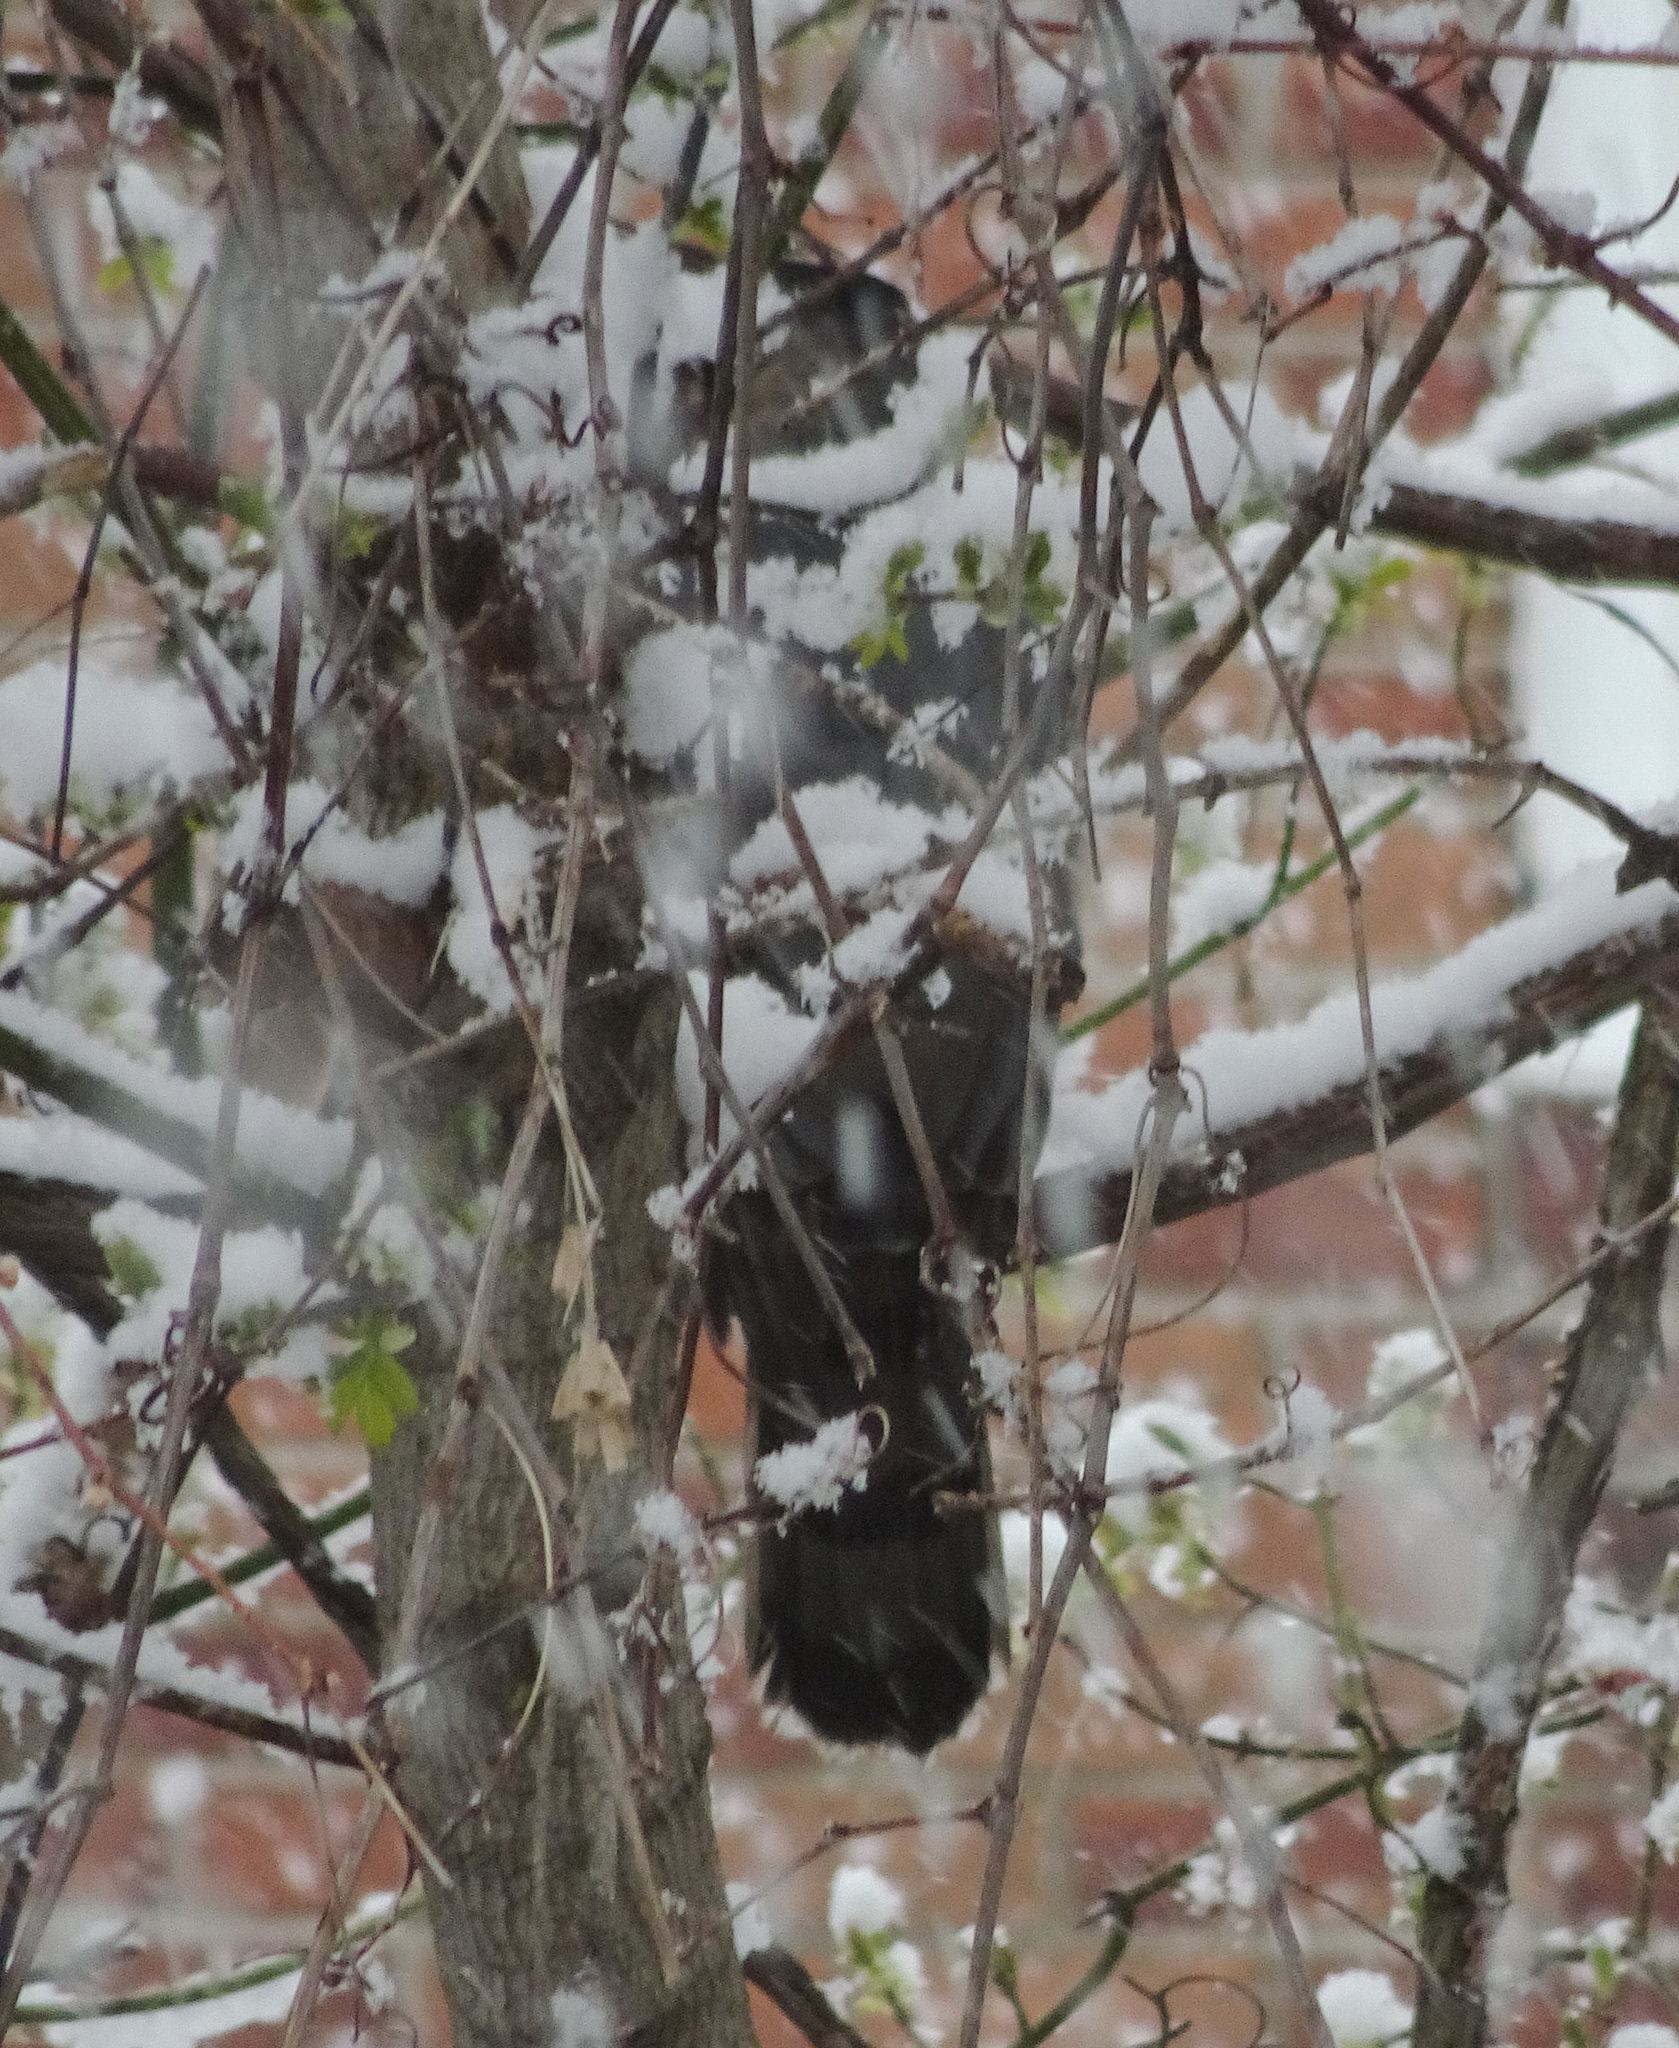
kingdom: Animalia
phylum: Chordata
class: Aves
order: Accipitriformes
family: Accipitridae
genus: Accipiter
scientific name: Accipiter cooperii
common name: Cooper's hawk
